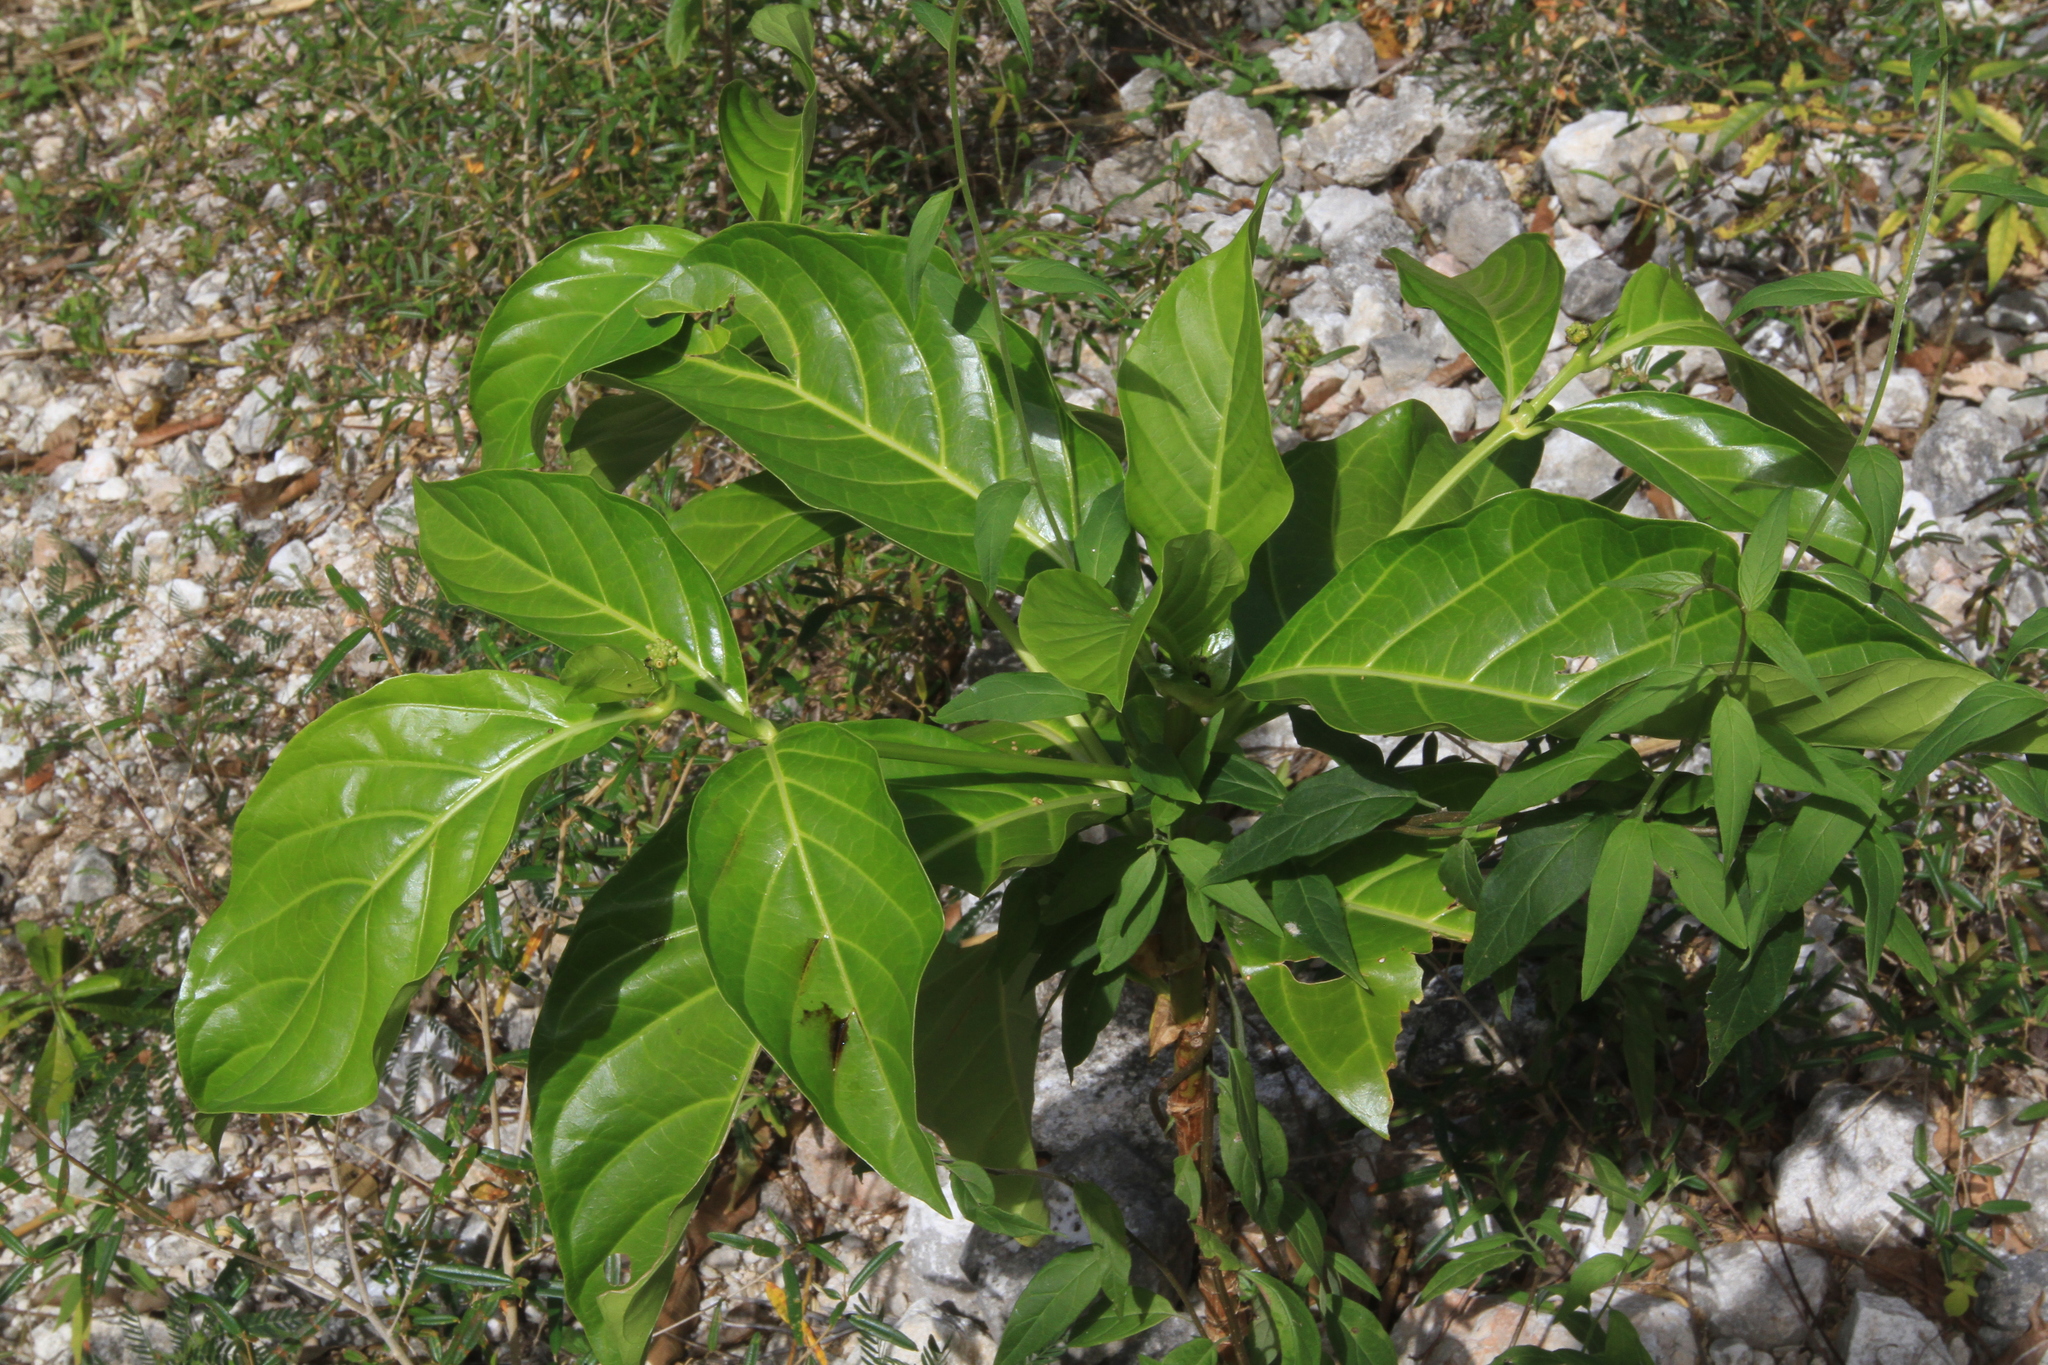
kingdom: Plantae
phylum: Tracheophyta
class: Magnoliopsida
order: Gentianales
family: Rubiaceae
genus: Morinda
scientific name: Morinda citrifolia
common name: Indian-mulberry
